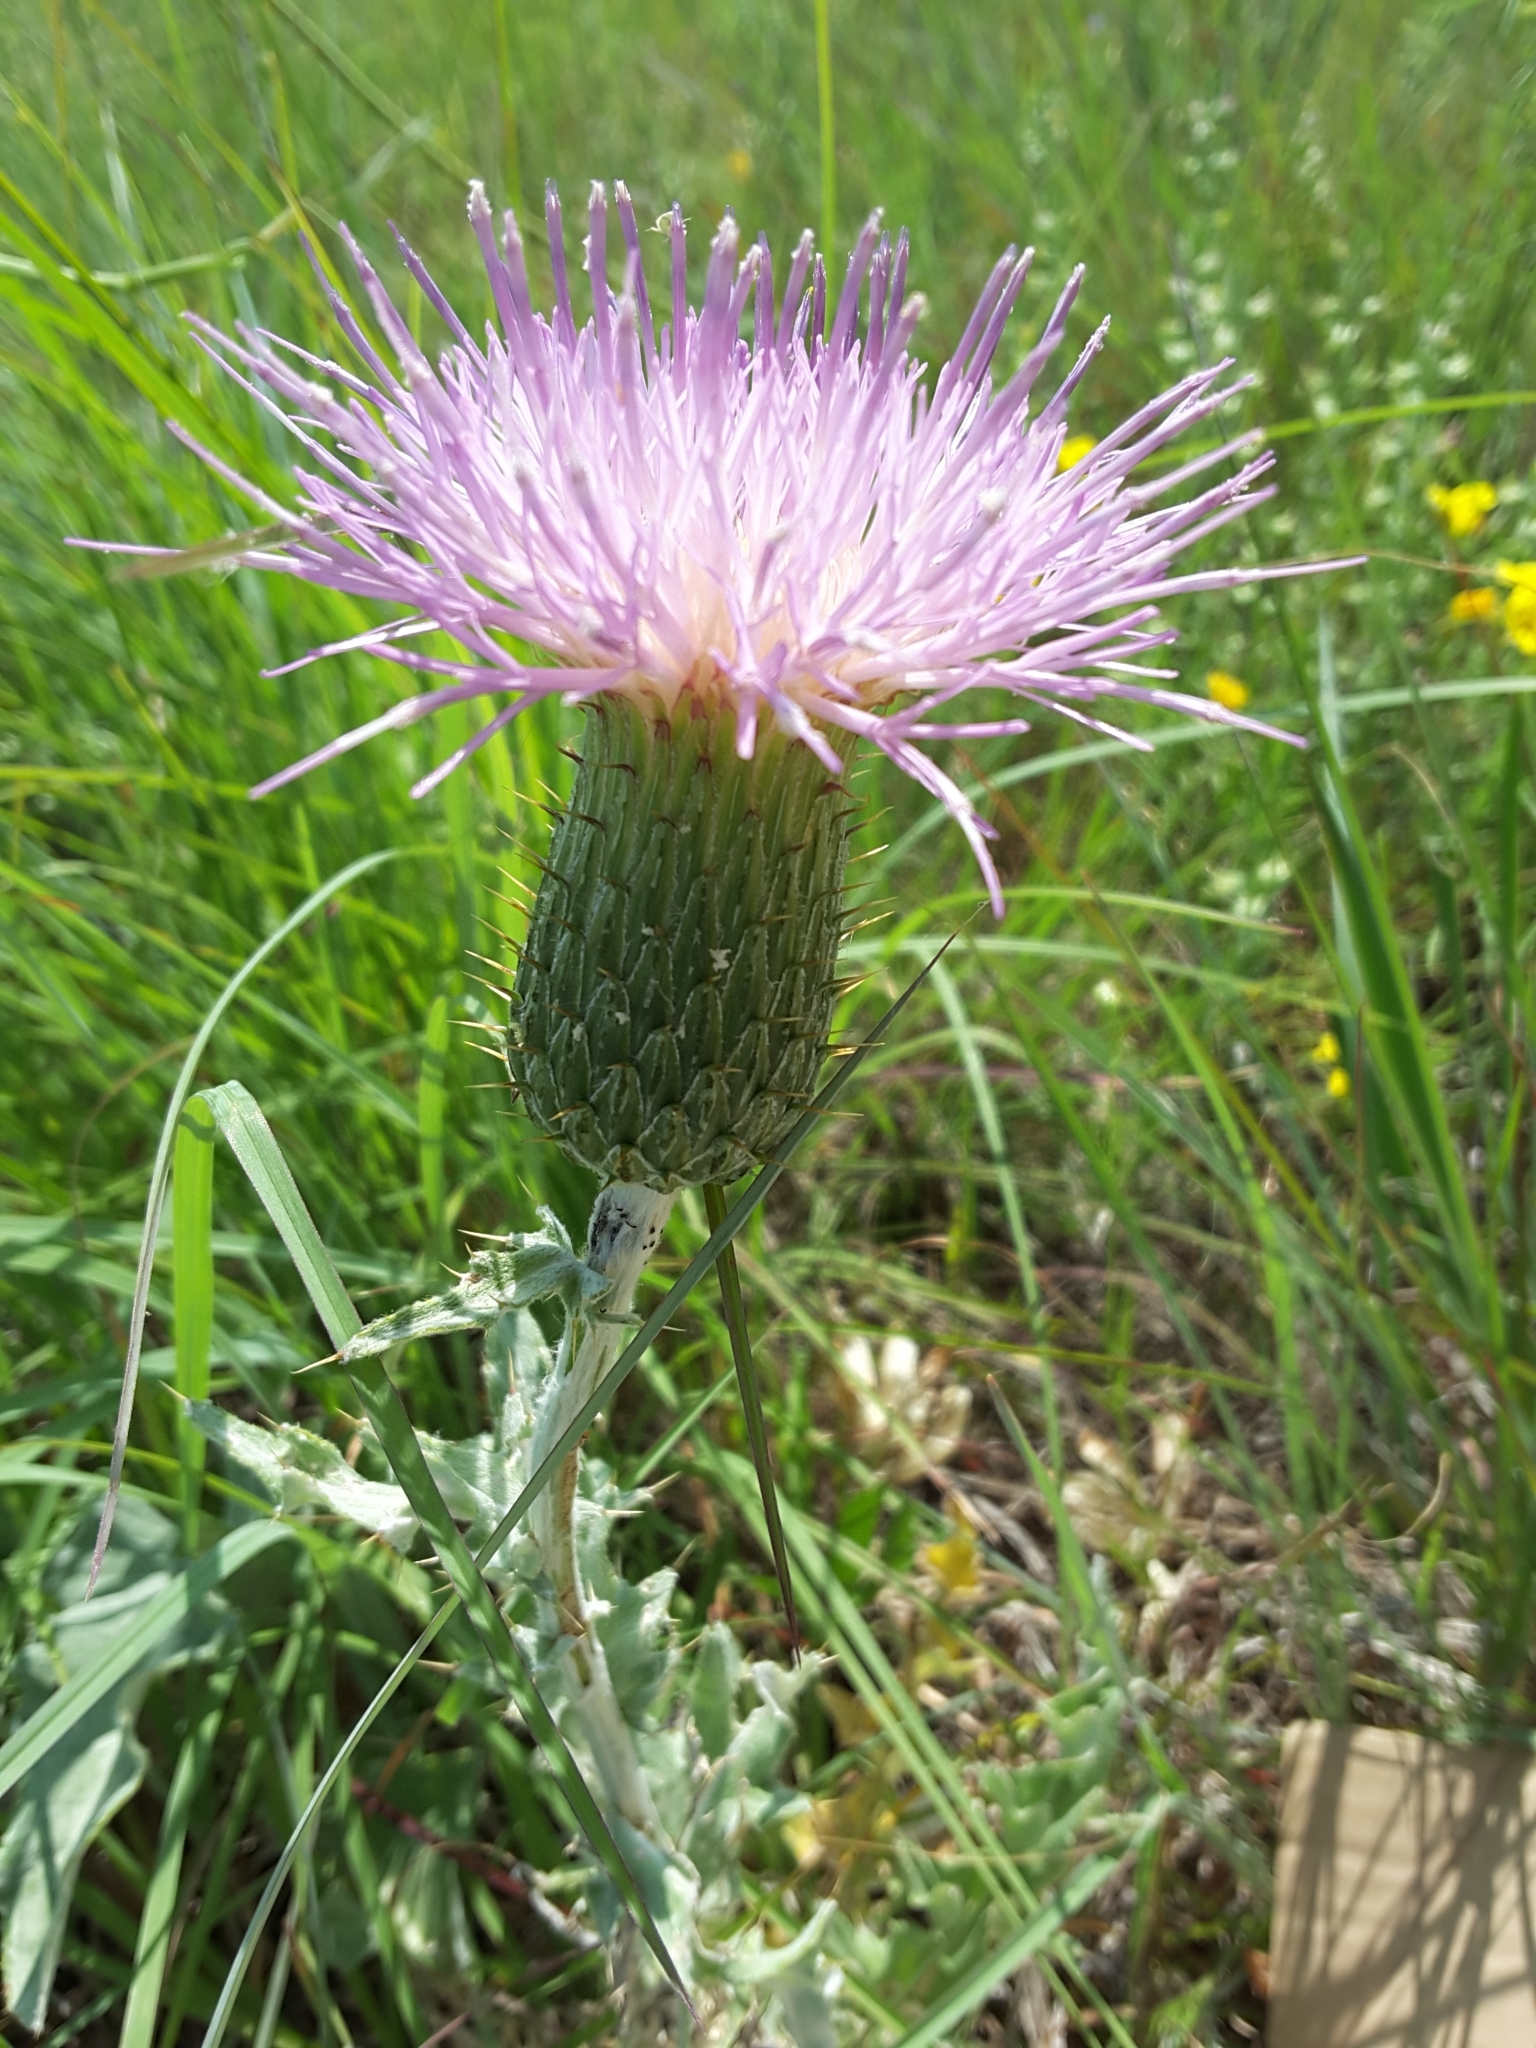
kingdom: Plantae
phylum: Tracheophyta
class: Magnoliopsida
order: Asterales
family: Asteraceae
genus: Cirsium
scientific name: Cirsium undulatum
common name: Pasture thistle
